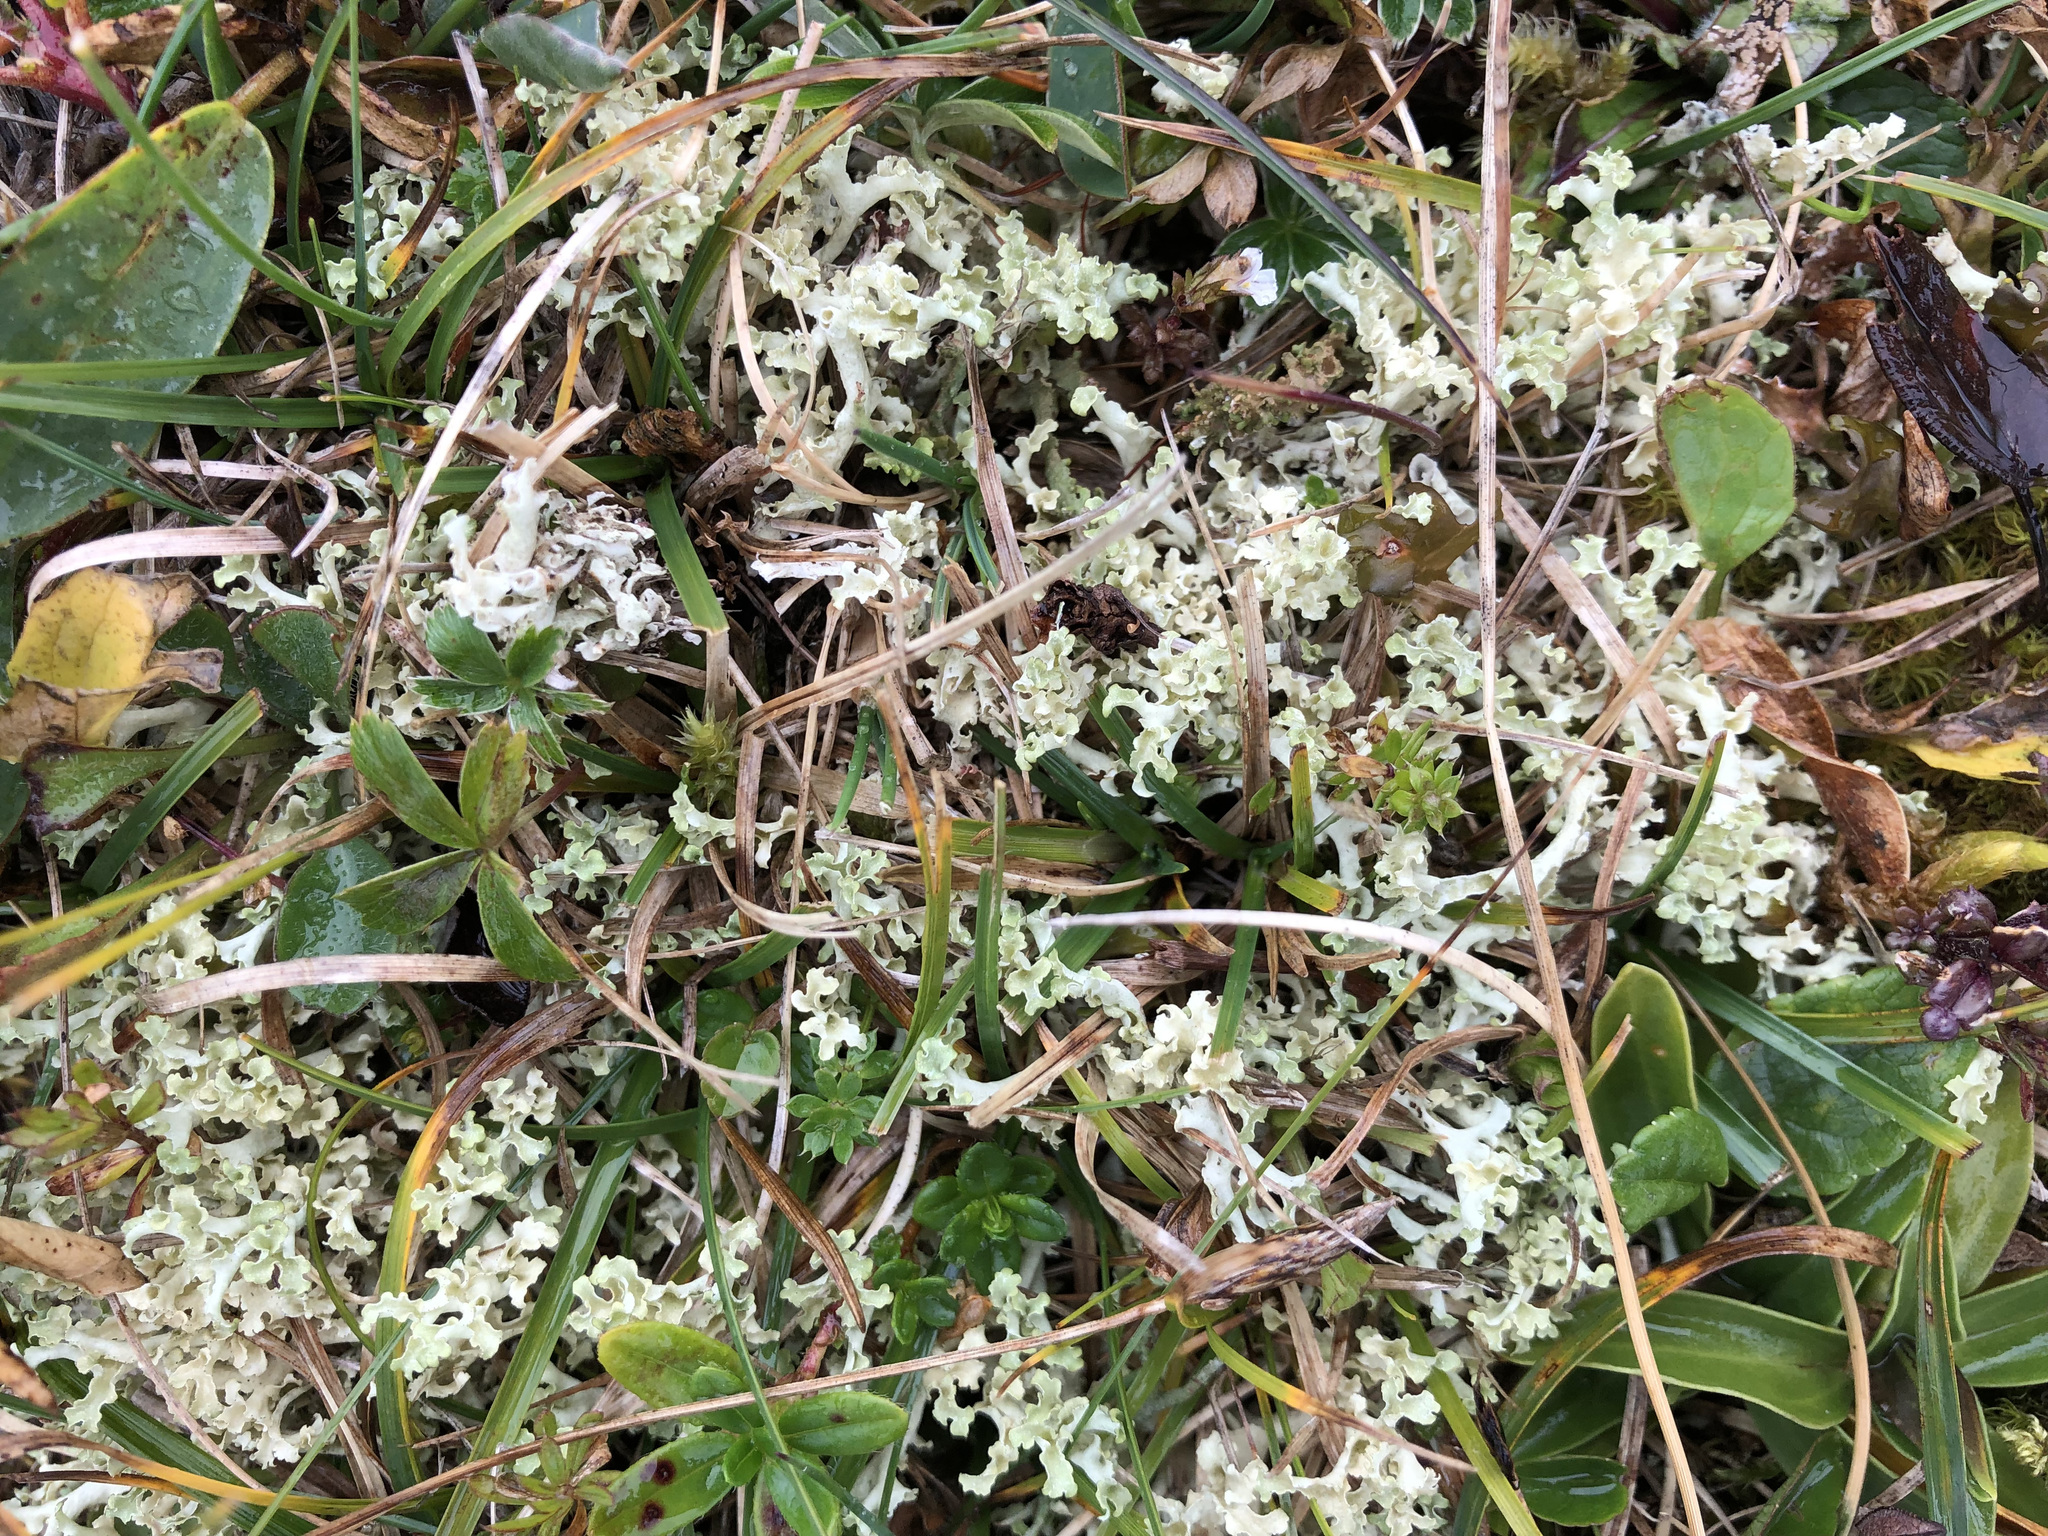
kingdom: Fungi
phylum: Ascomycota
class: Lecanoromycetes
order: Lecanorales
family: Parmeliaceae
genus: Nephromopsis
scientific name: Nephromopsis cucullata
